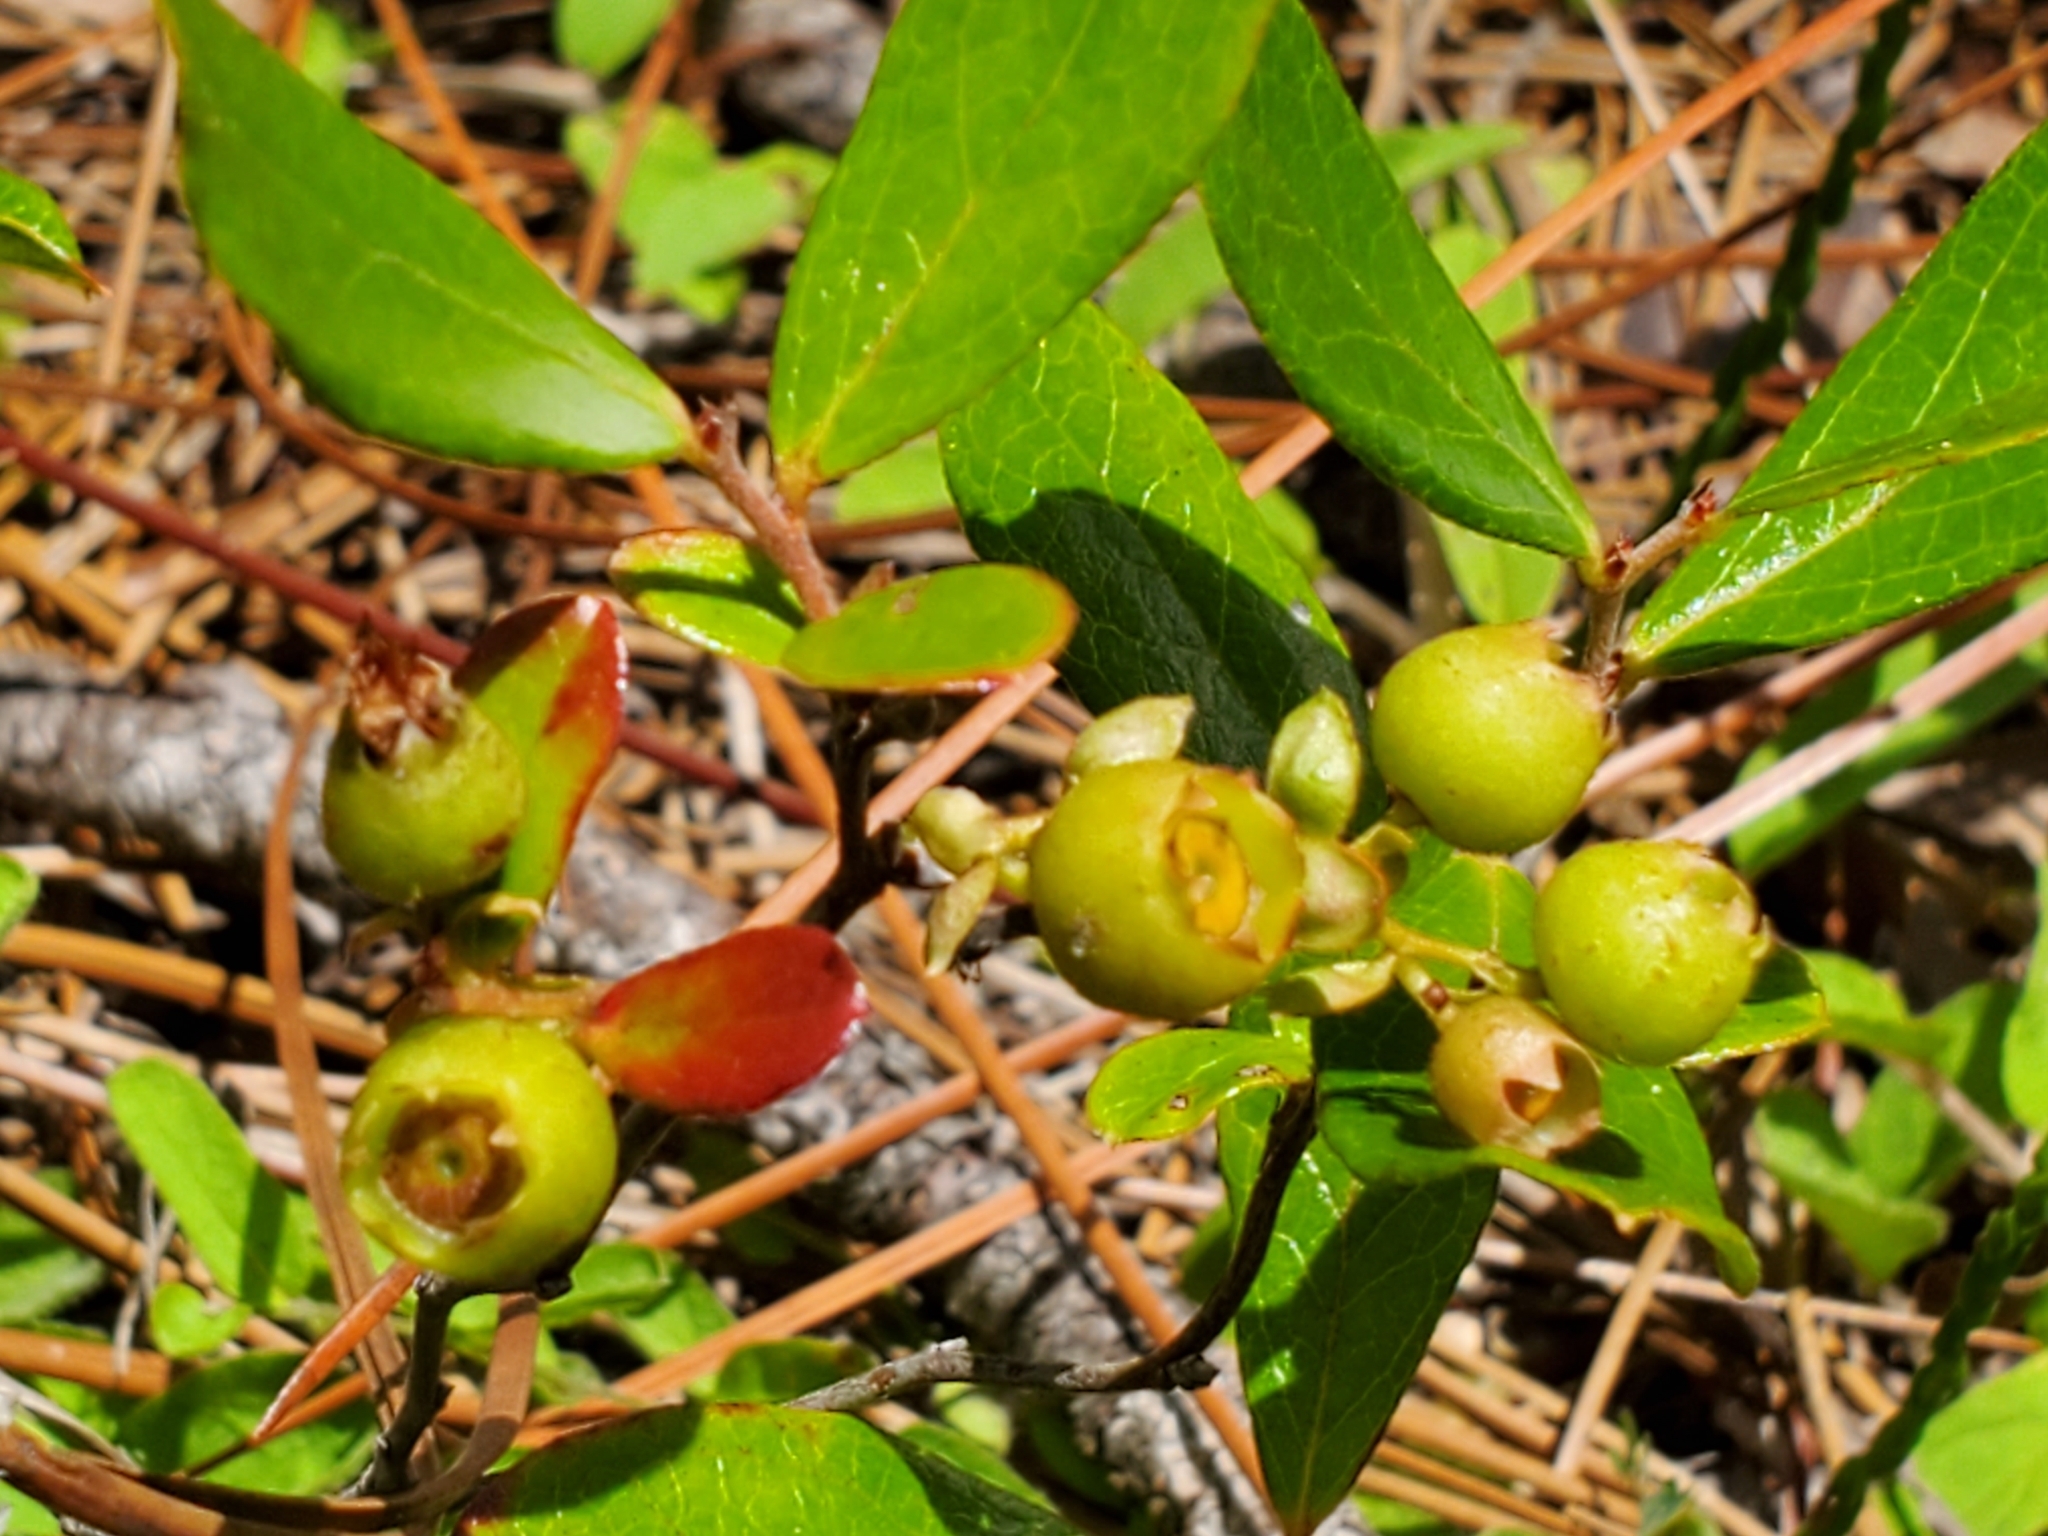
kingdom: Plantae
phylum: Tracheophyta
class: Magnoliopsida
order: Ericales
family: Ericaceae
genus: Gaylussacia
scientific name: Gaylussacia dumosa
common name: Dwarf huckleberry
